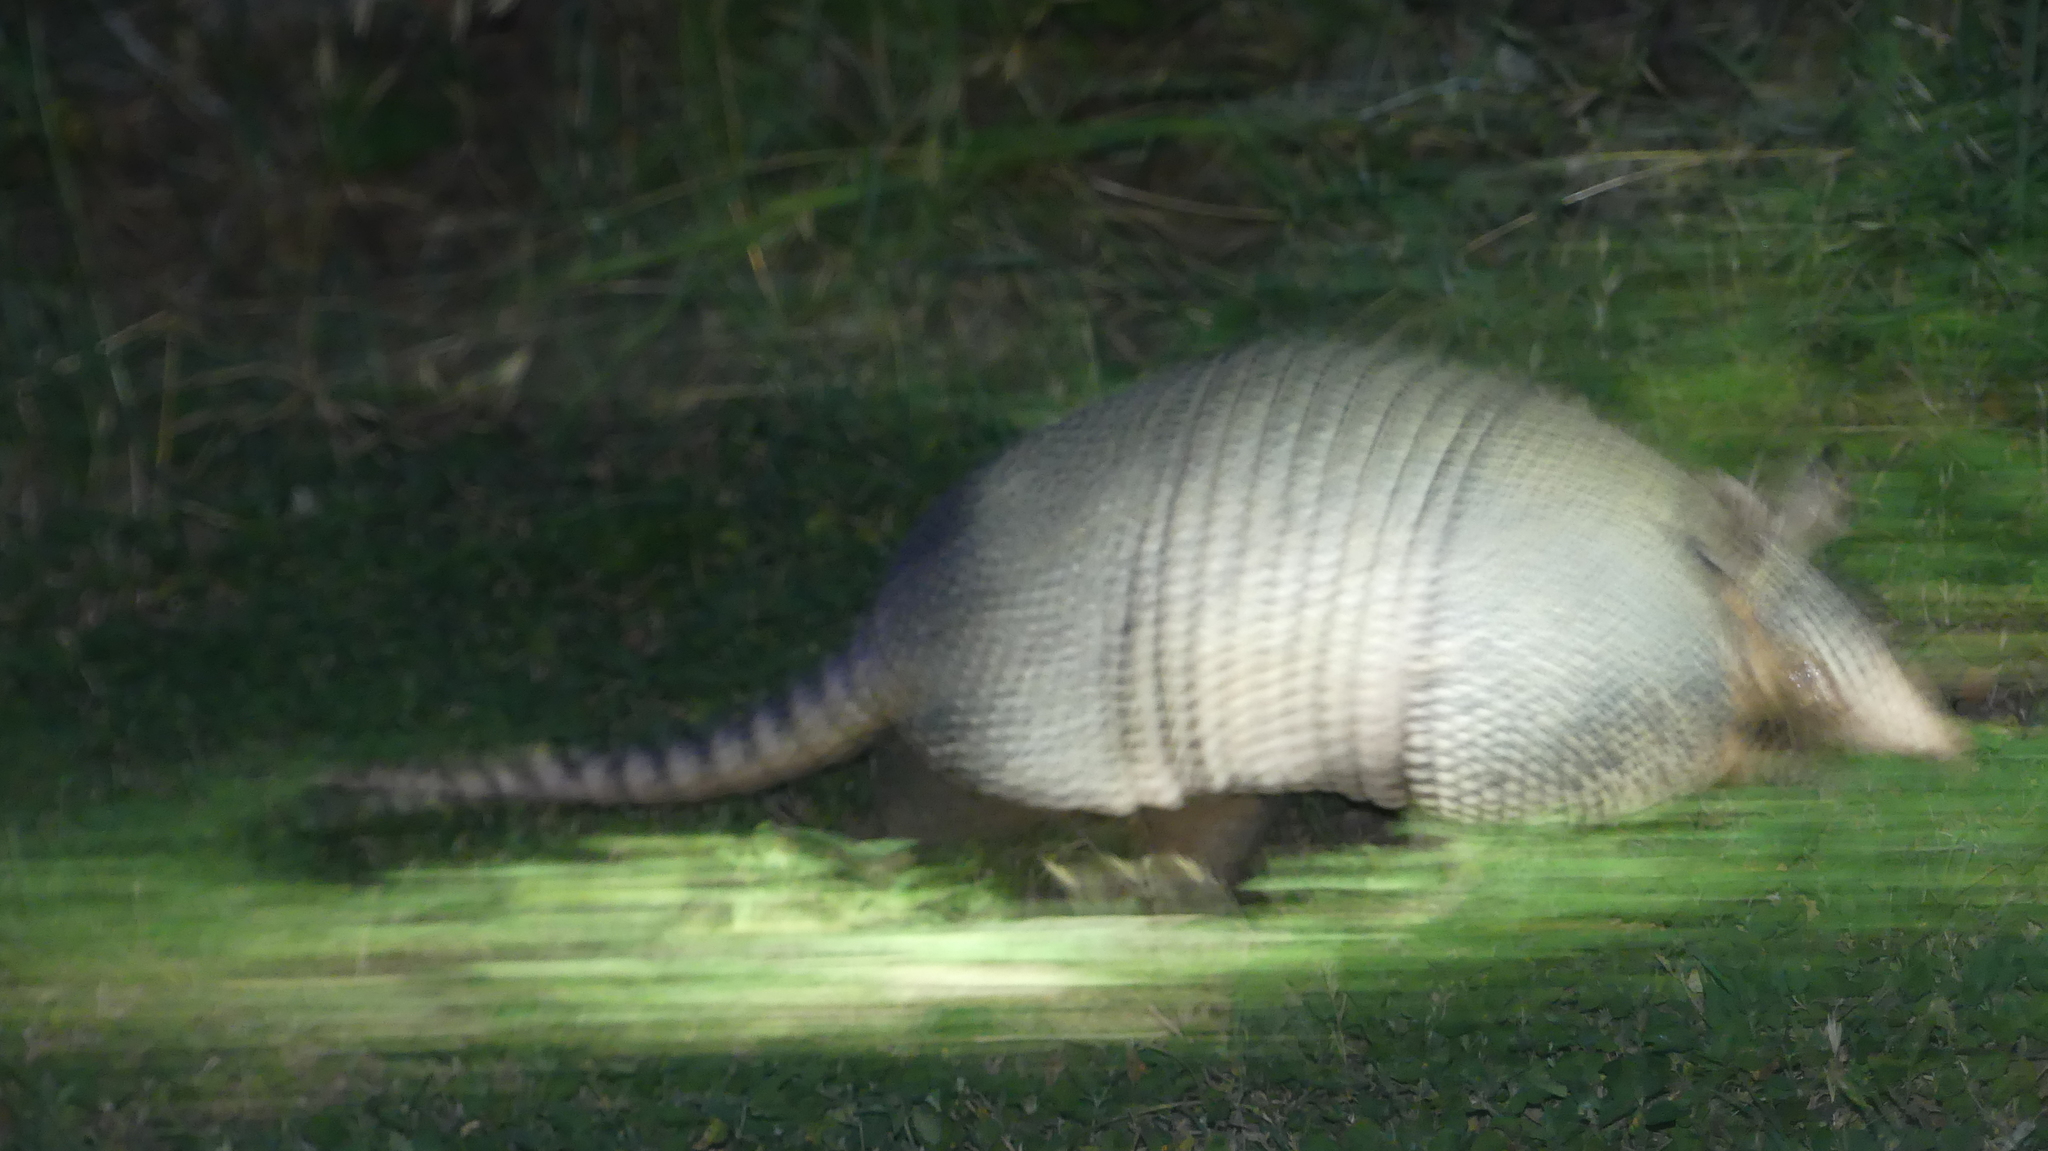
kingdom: Animalia
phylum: Chordata
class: Mammalia
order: Cingulata
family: Dasypodidae
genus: Dasypus
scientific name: Dasypus novemcinctus
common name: Nine-banded armadillo
